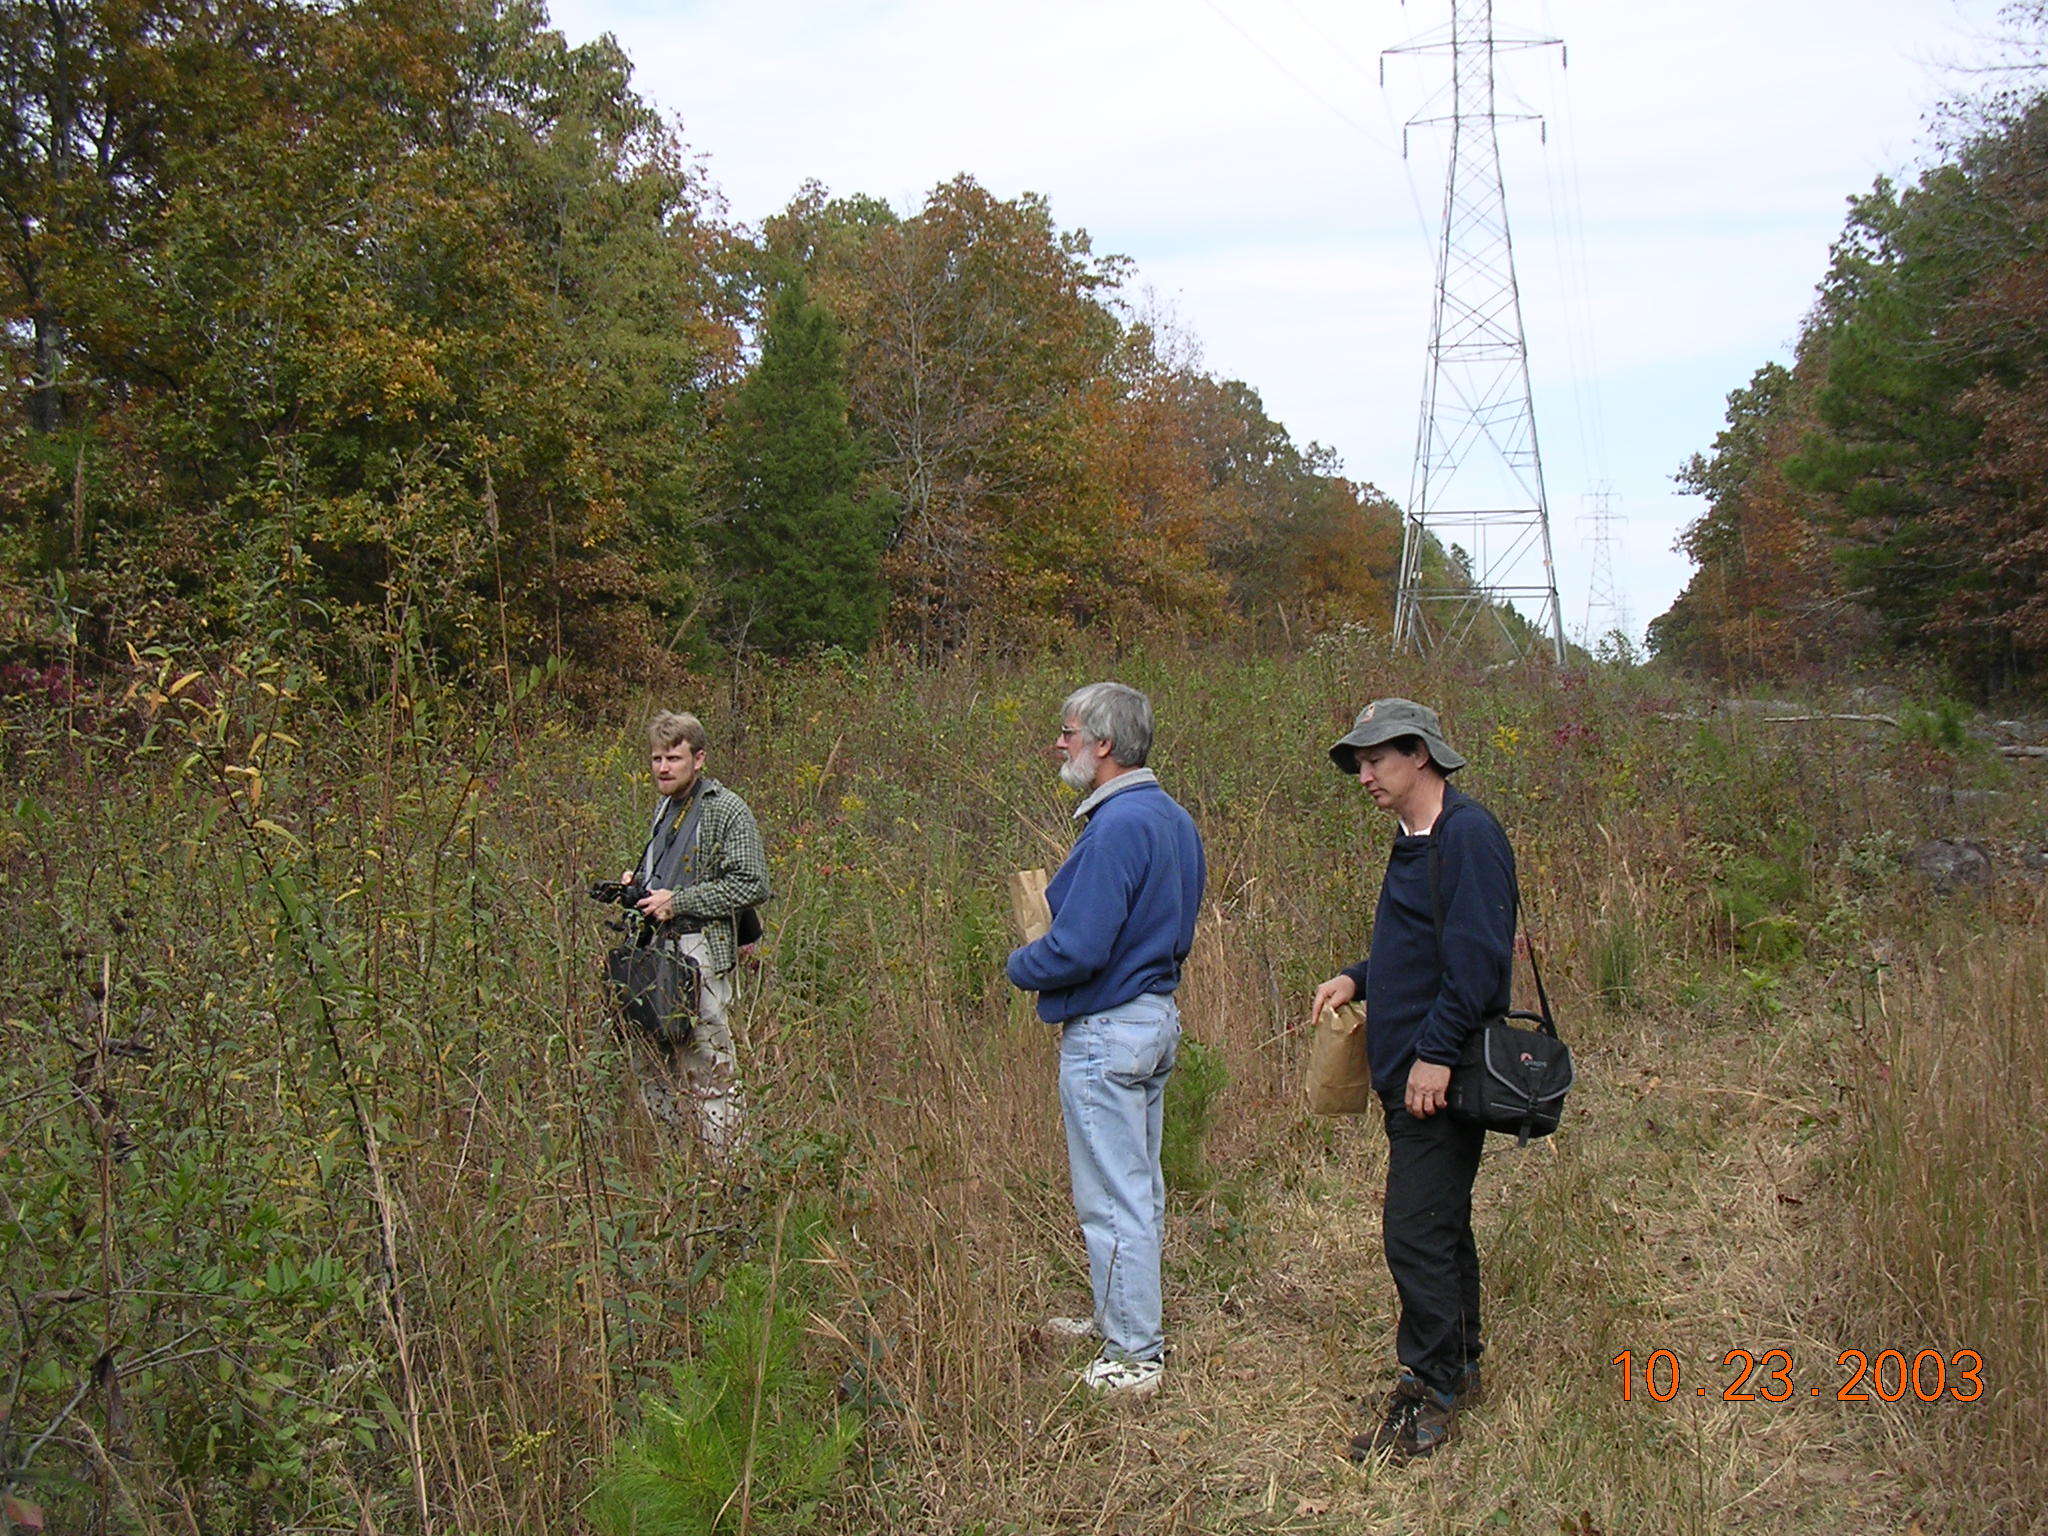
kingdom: Plantae
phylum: Tracheophyta
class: Magnoliopsida
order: Asterales
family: Asteraceae
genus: Helianthus
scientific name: Helianthus eggertii
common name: Eggert's sunflower
